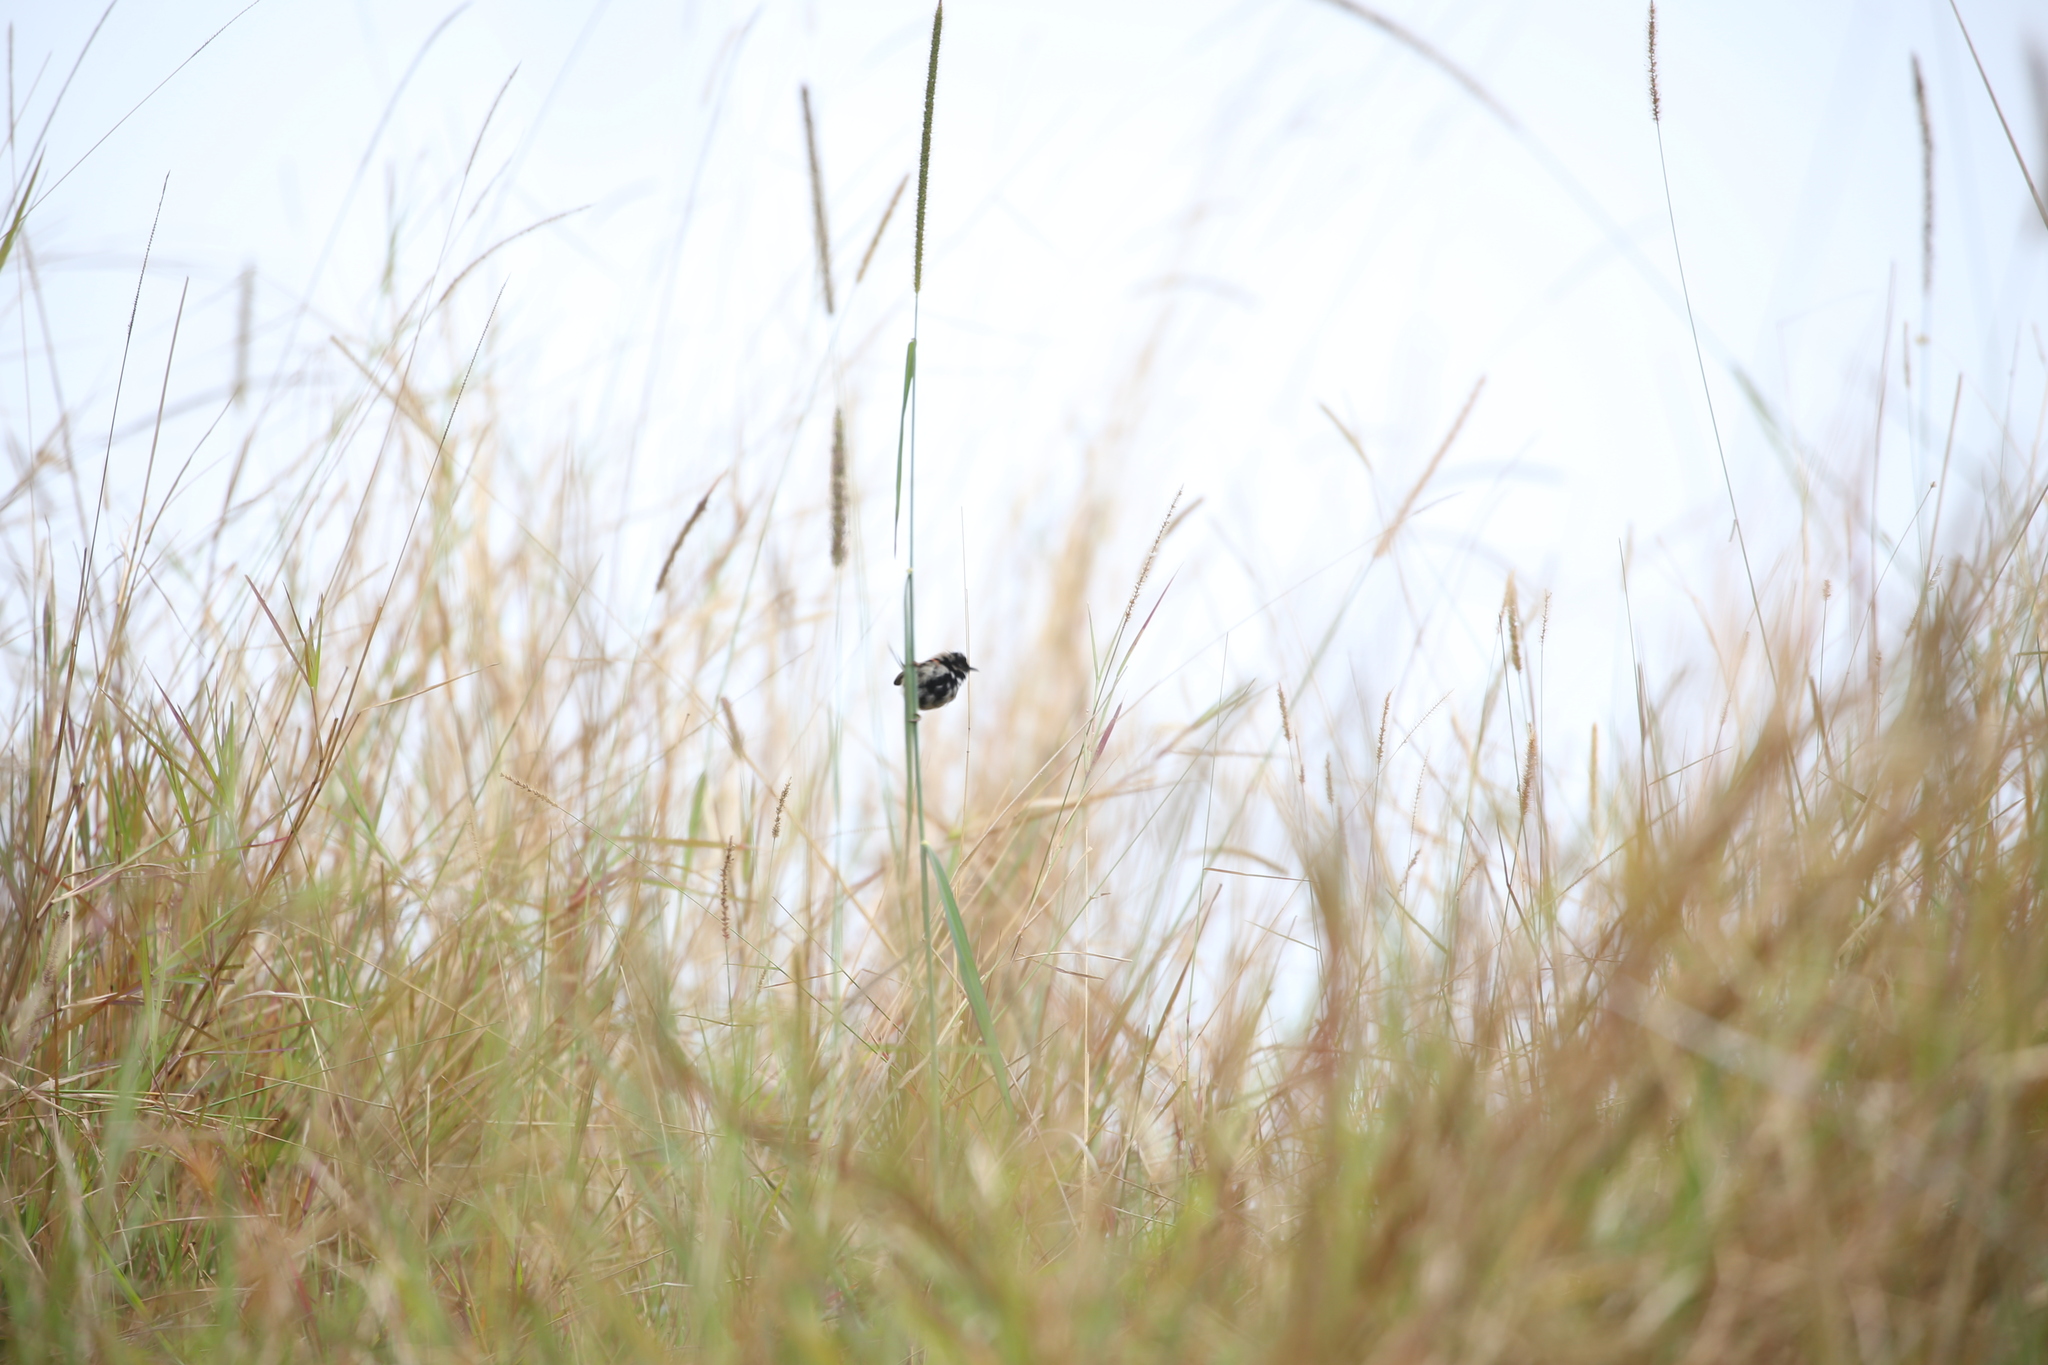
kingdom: Animalia
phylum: Chordata
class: Aves
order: Passeriformes
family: Maluridae
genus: Malurus
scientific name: Malurus melanocephalus
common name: Red-backed fairywren
